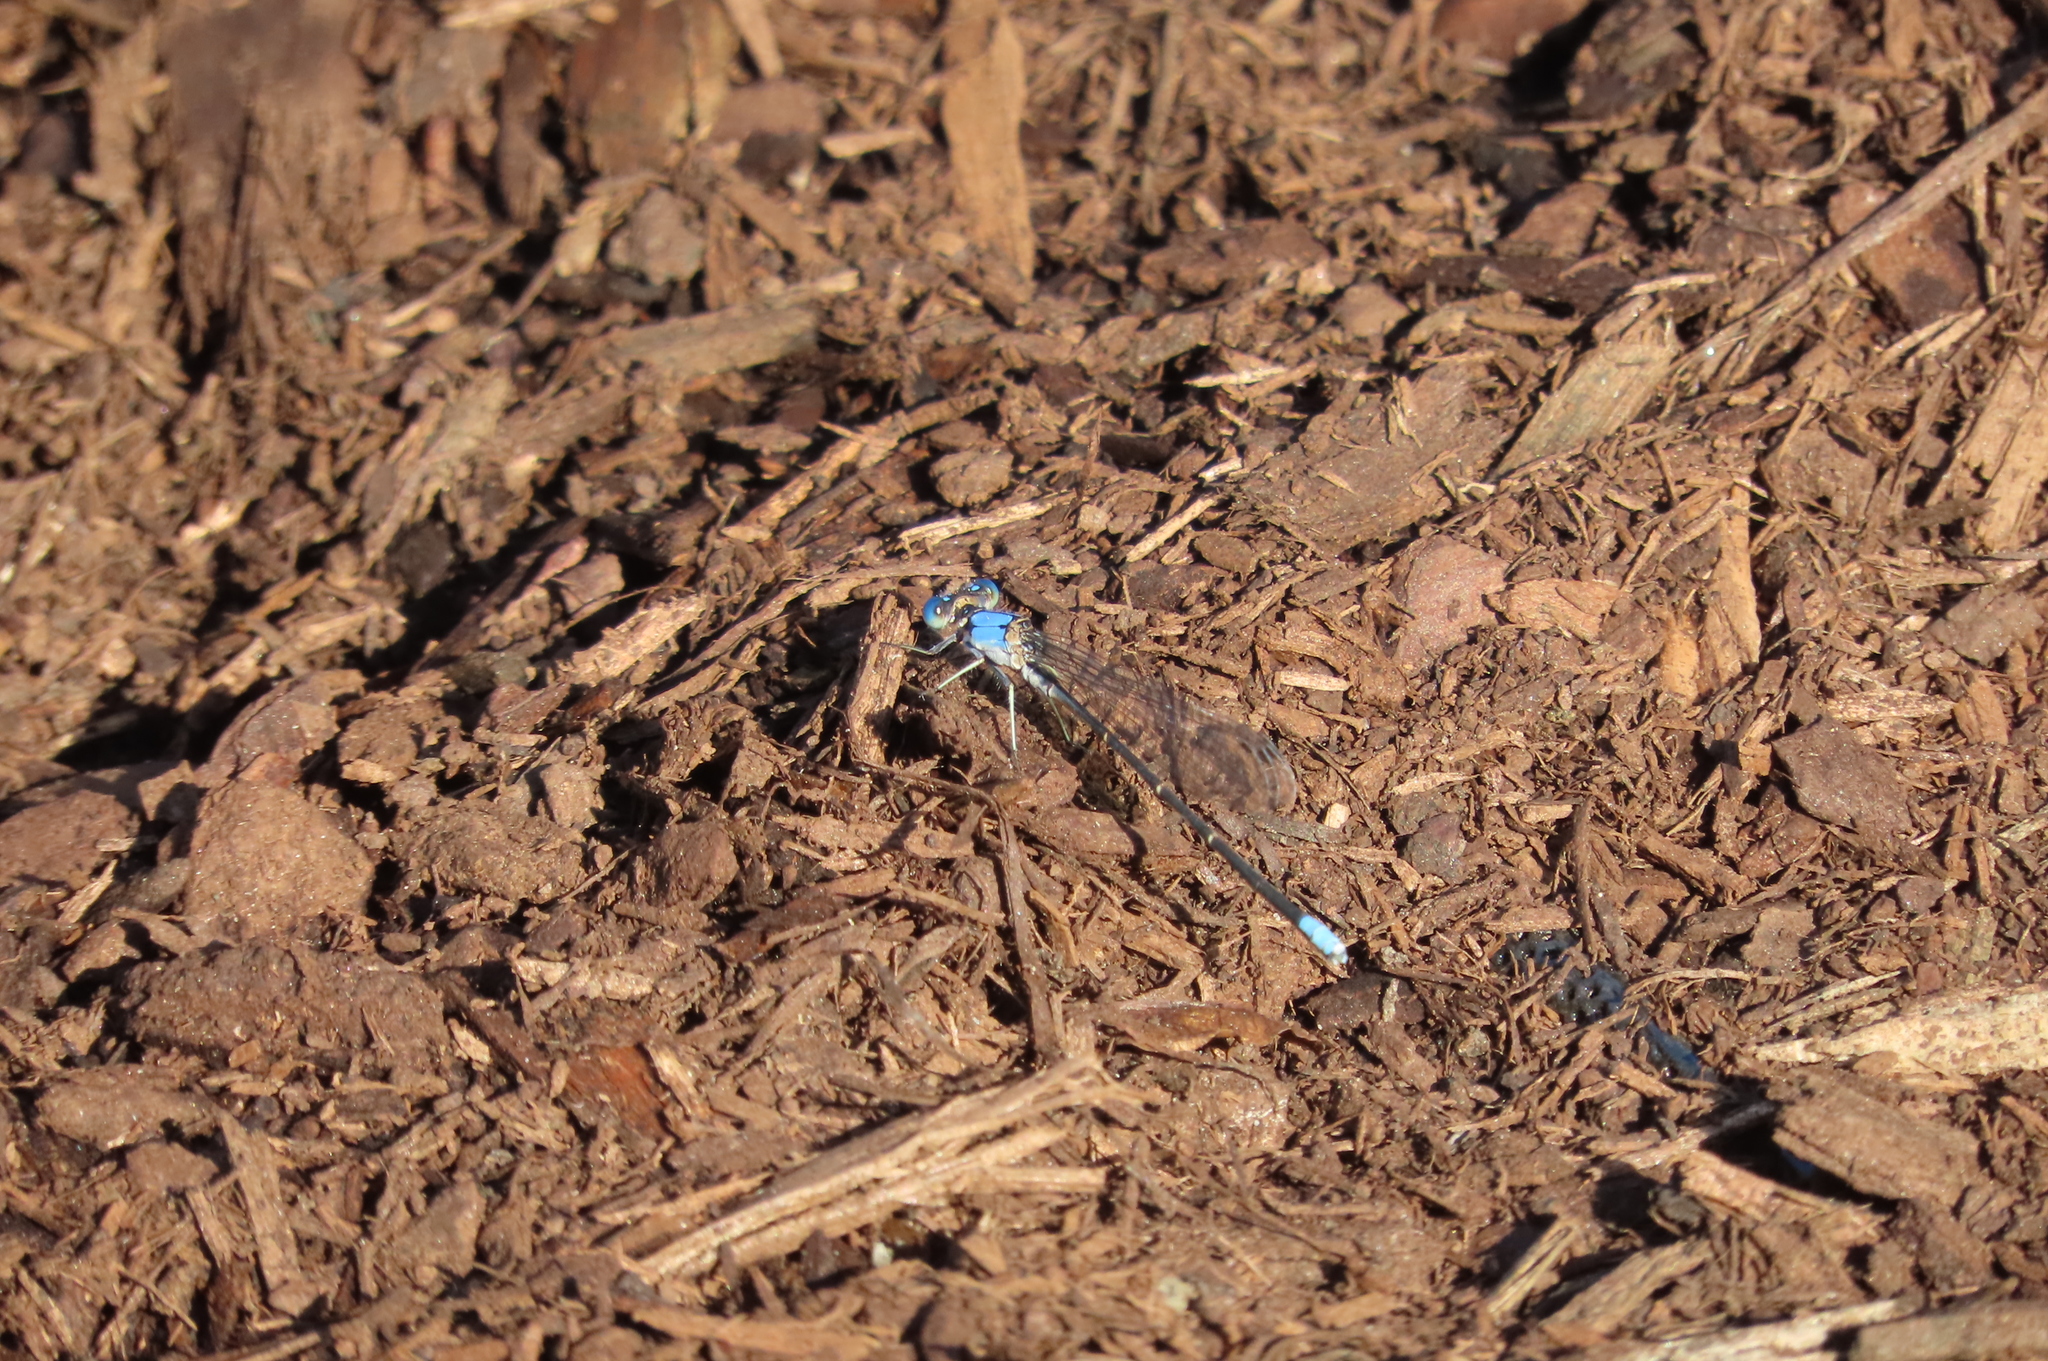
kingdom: Animalia
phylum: Arthropoda
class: Insecta
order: Odonata
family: Coenagrionidae
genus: Argia
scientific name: Argia apicalis
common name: Blue-fronted dancer
